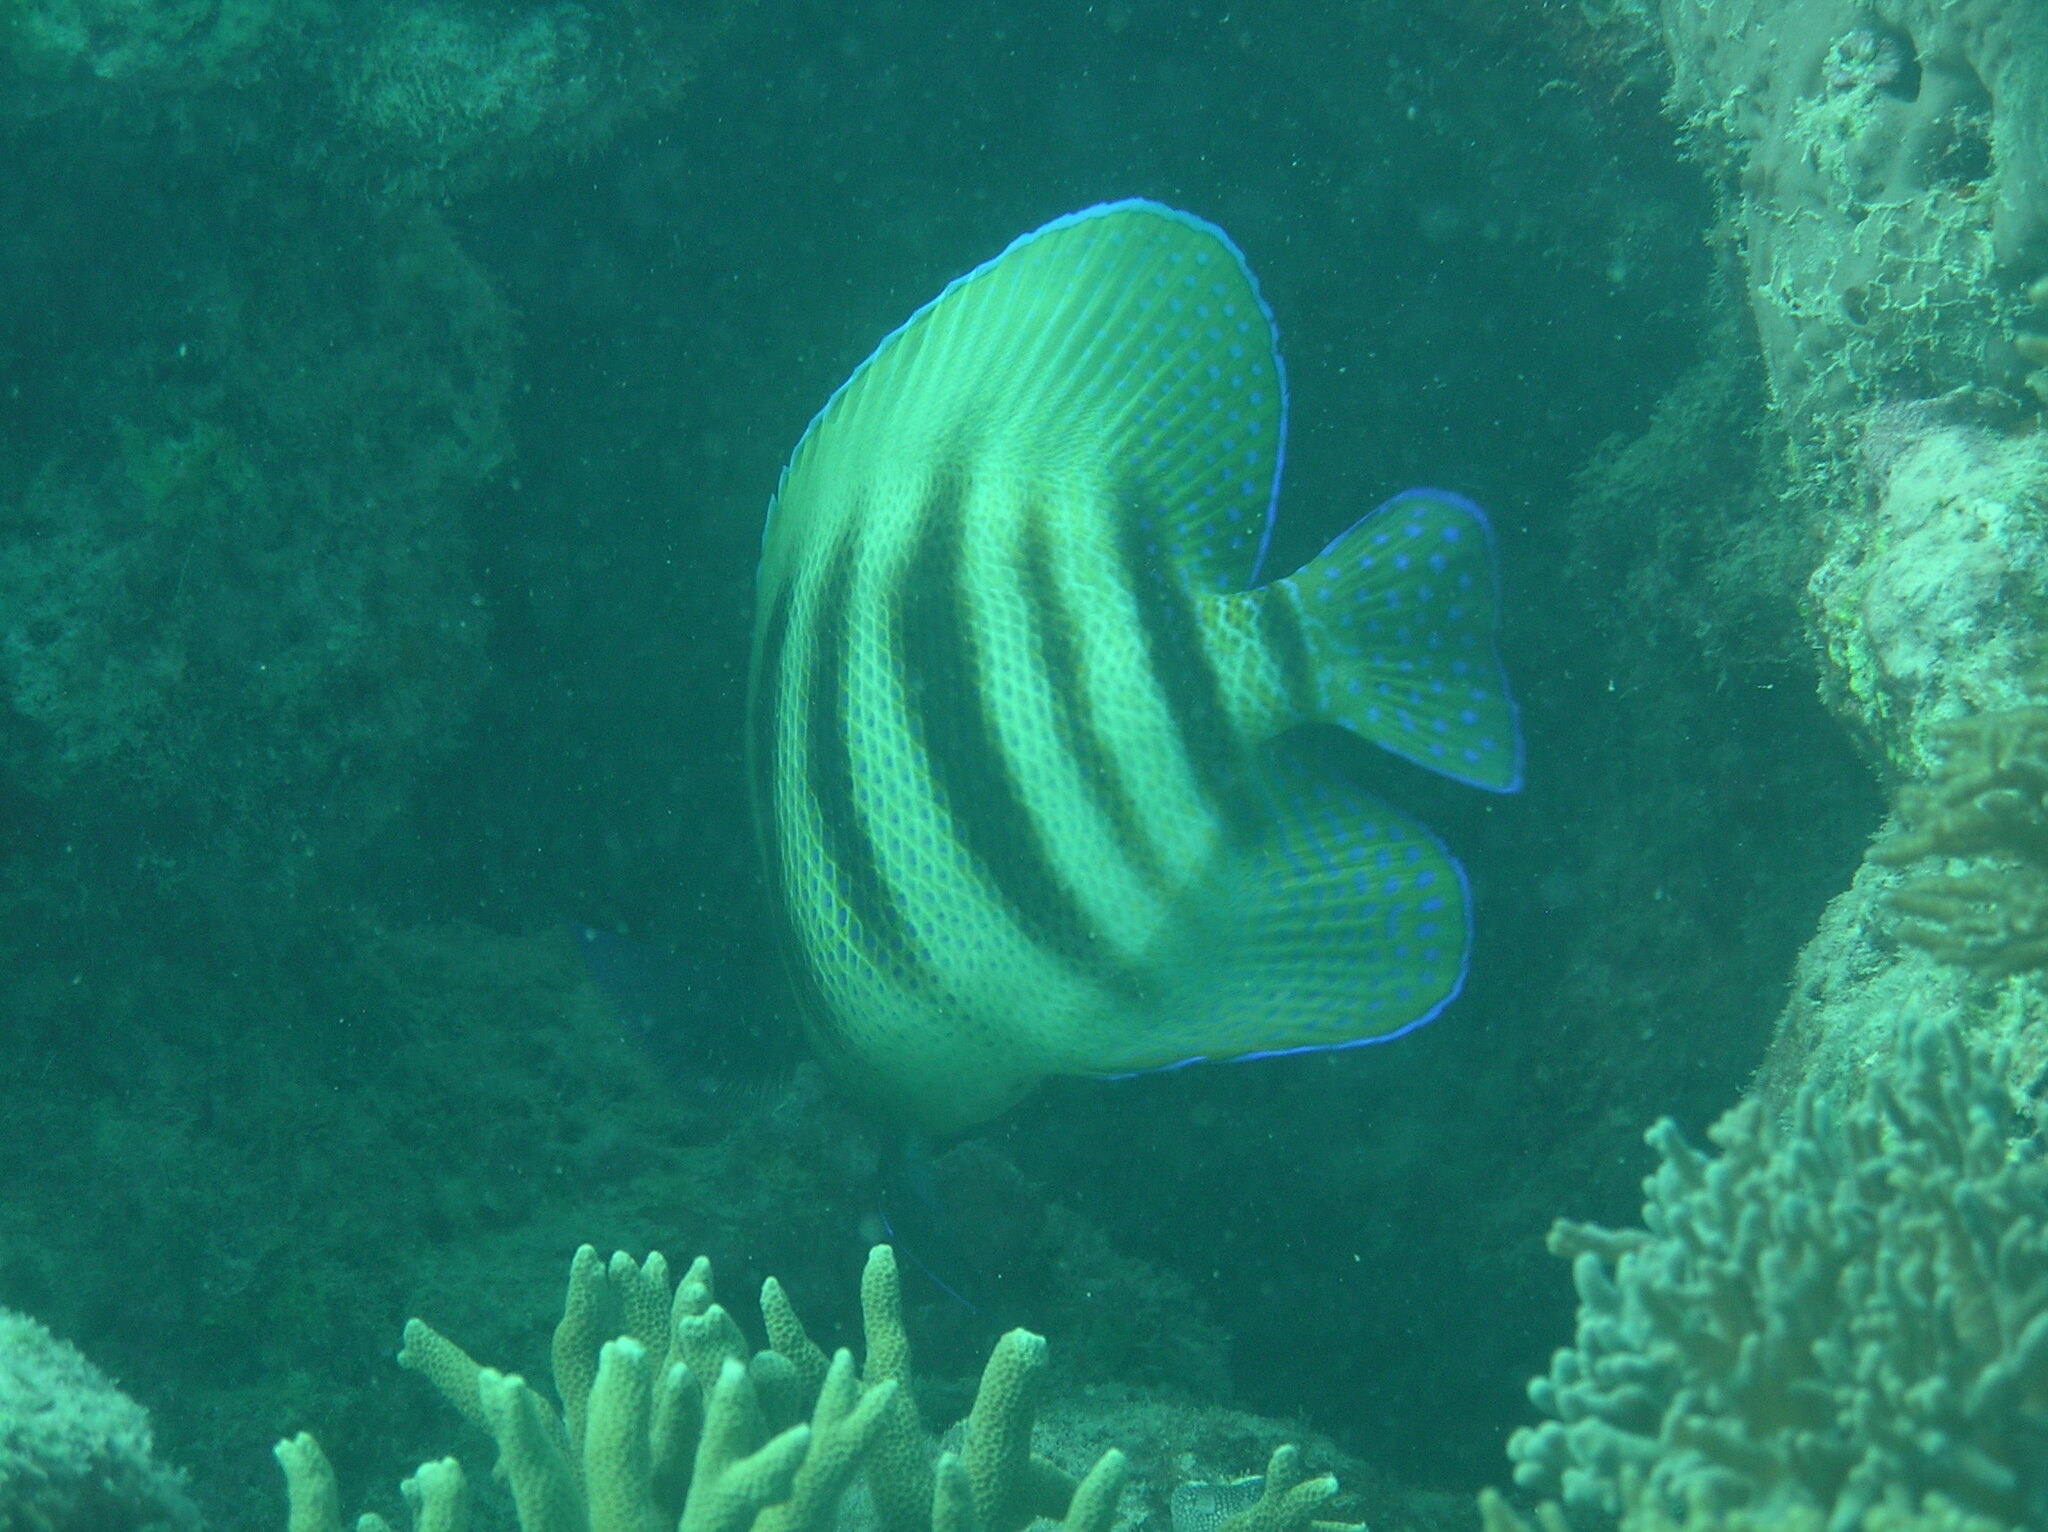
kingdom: Animalia
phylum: Chordata
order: Perciformes
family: Pomacanthidae
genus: Pomacanthus
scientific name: Pomacanthus sexstriatus
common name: Six-banded angelfish
